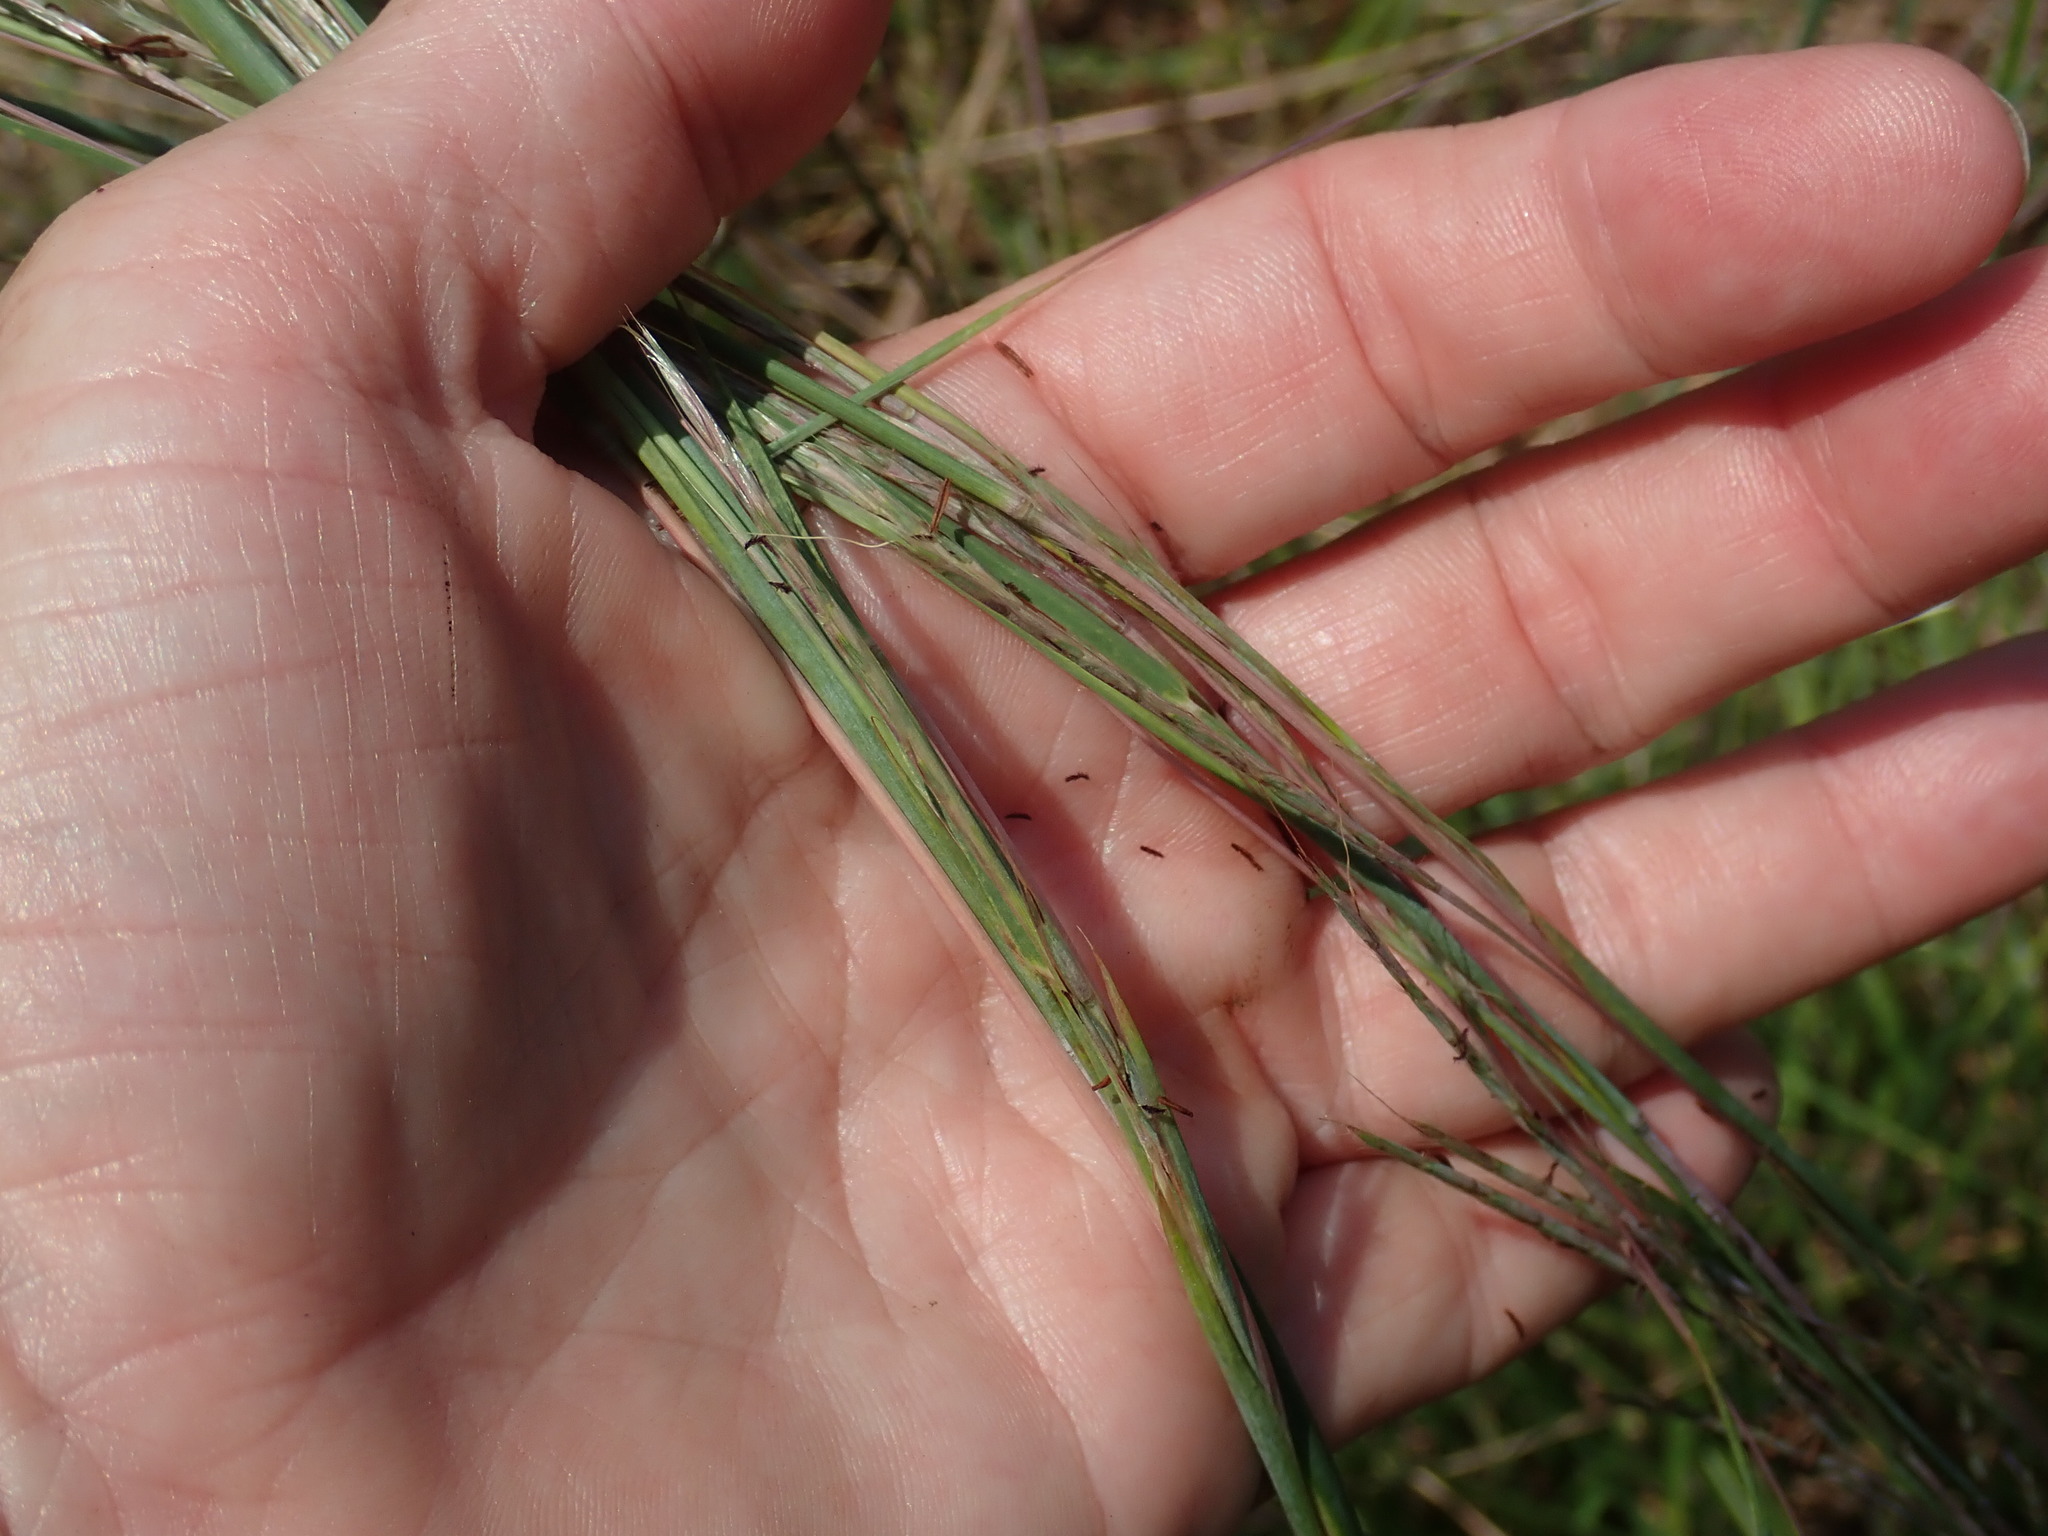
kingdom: Plantae
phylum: Tracheophyta
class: Liliopsida
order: Poales
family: Poaceae
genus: Schizachyrium
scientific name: Schizachyrium scoparium
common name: Little bluestem
